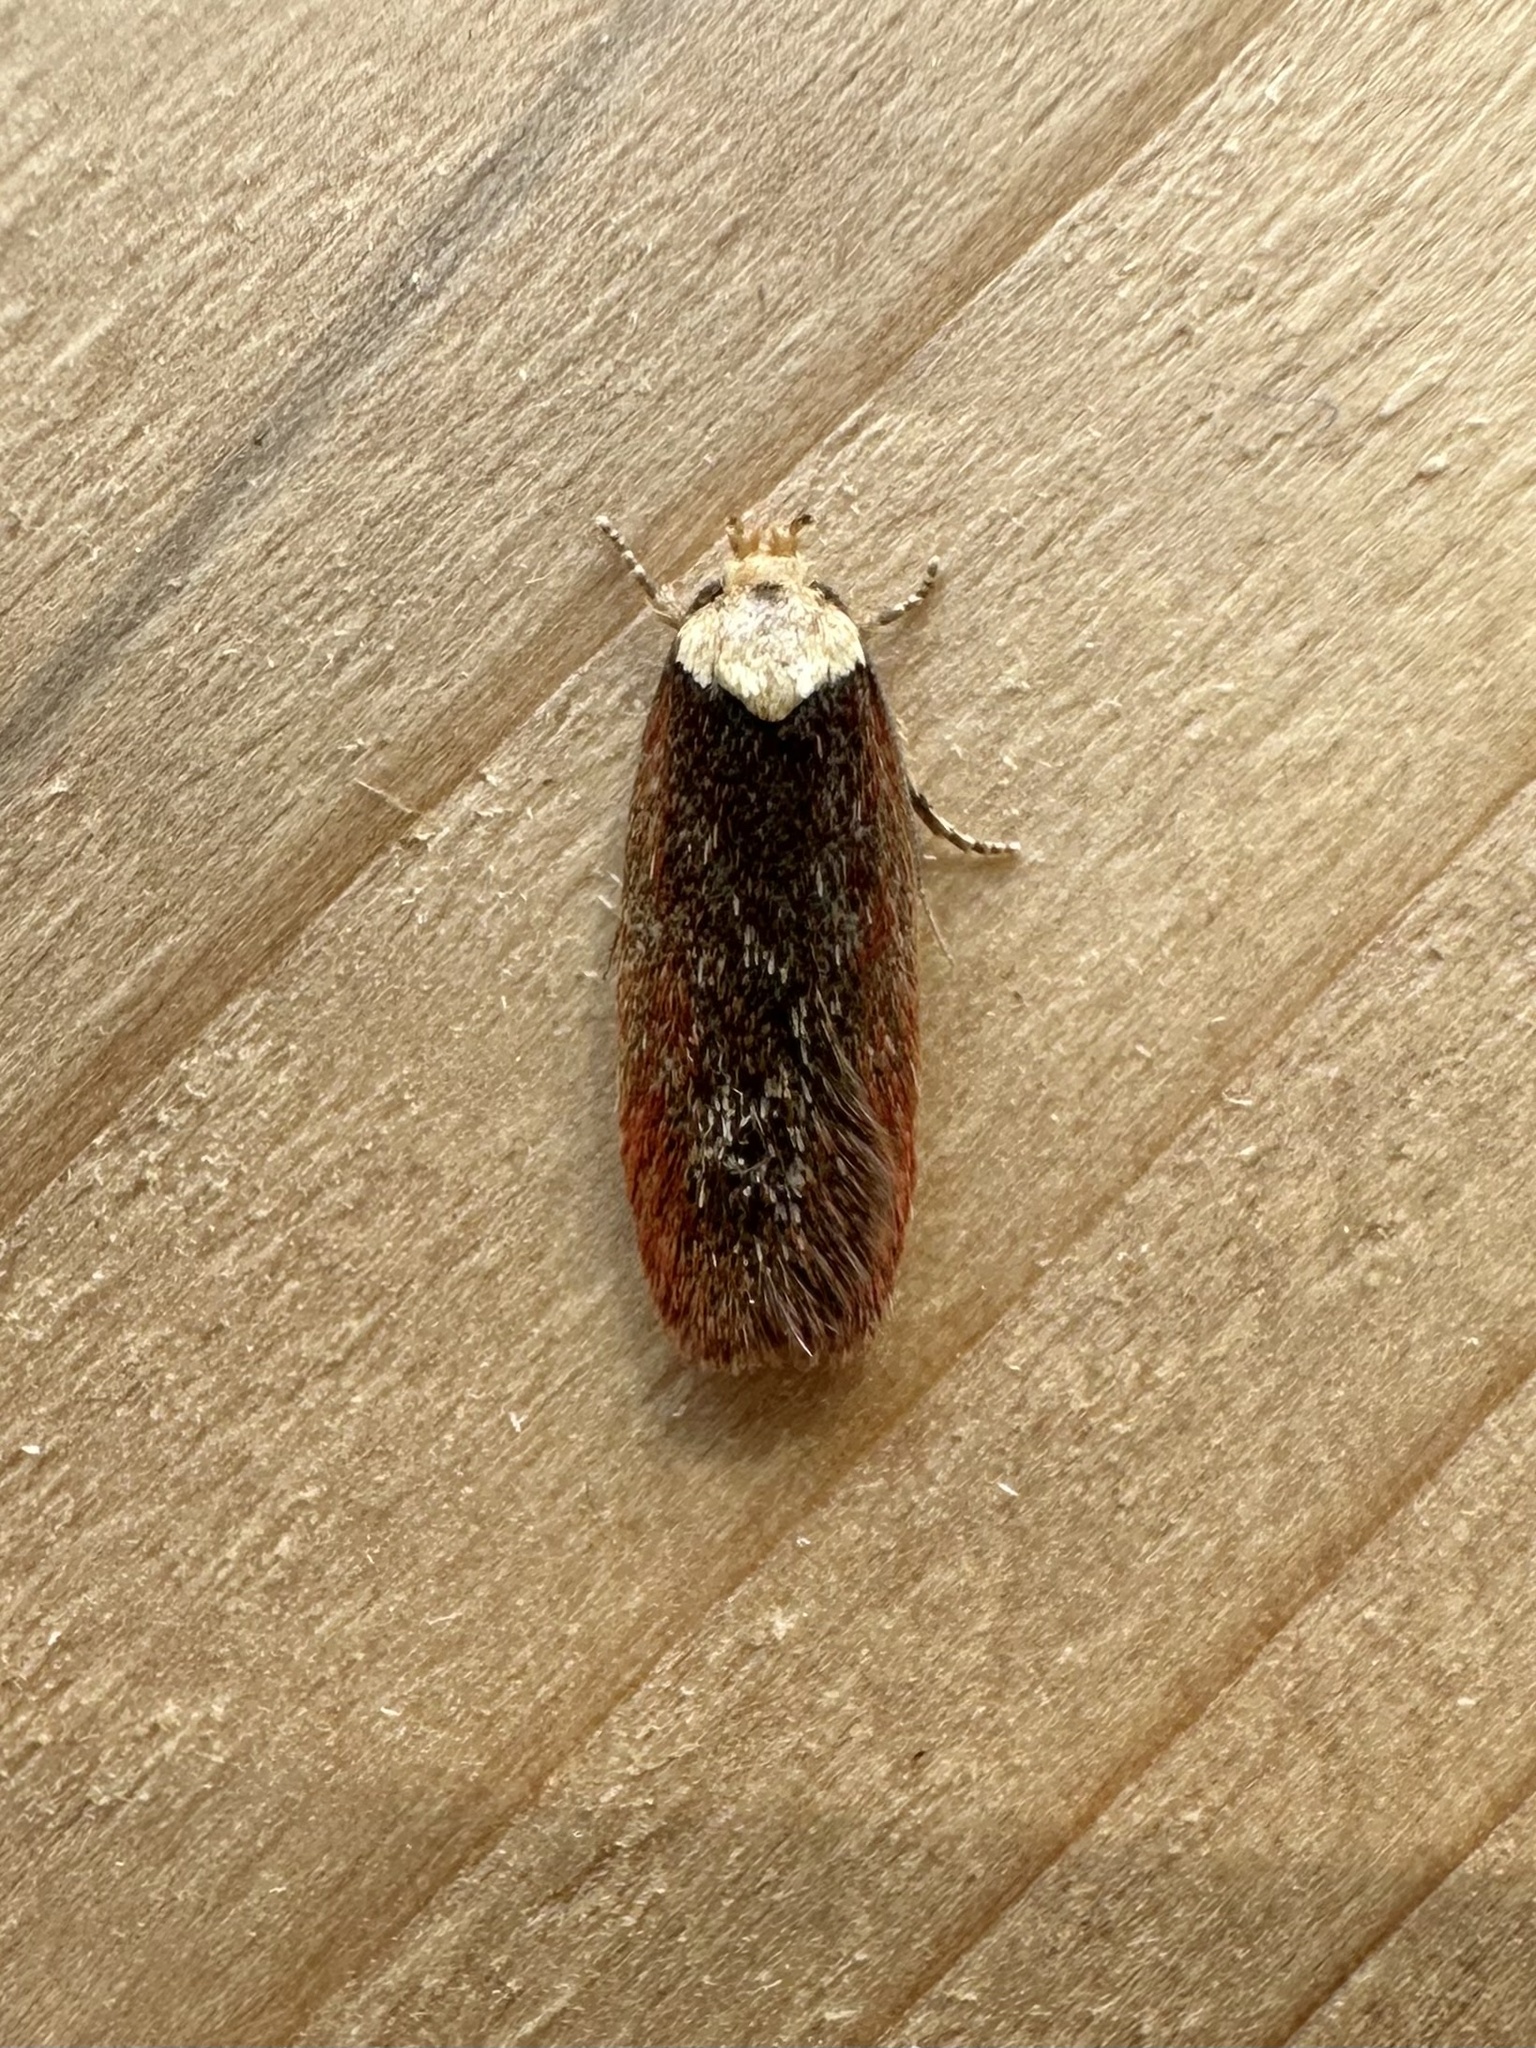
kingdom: Animalia
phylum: Arthropoda
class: Insecta
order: Lepidoptera
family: Depressariidae
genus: Depressaria
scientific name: Depressaria depressana
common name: Lost flat-body
